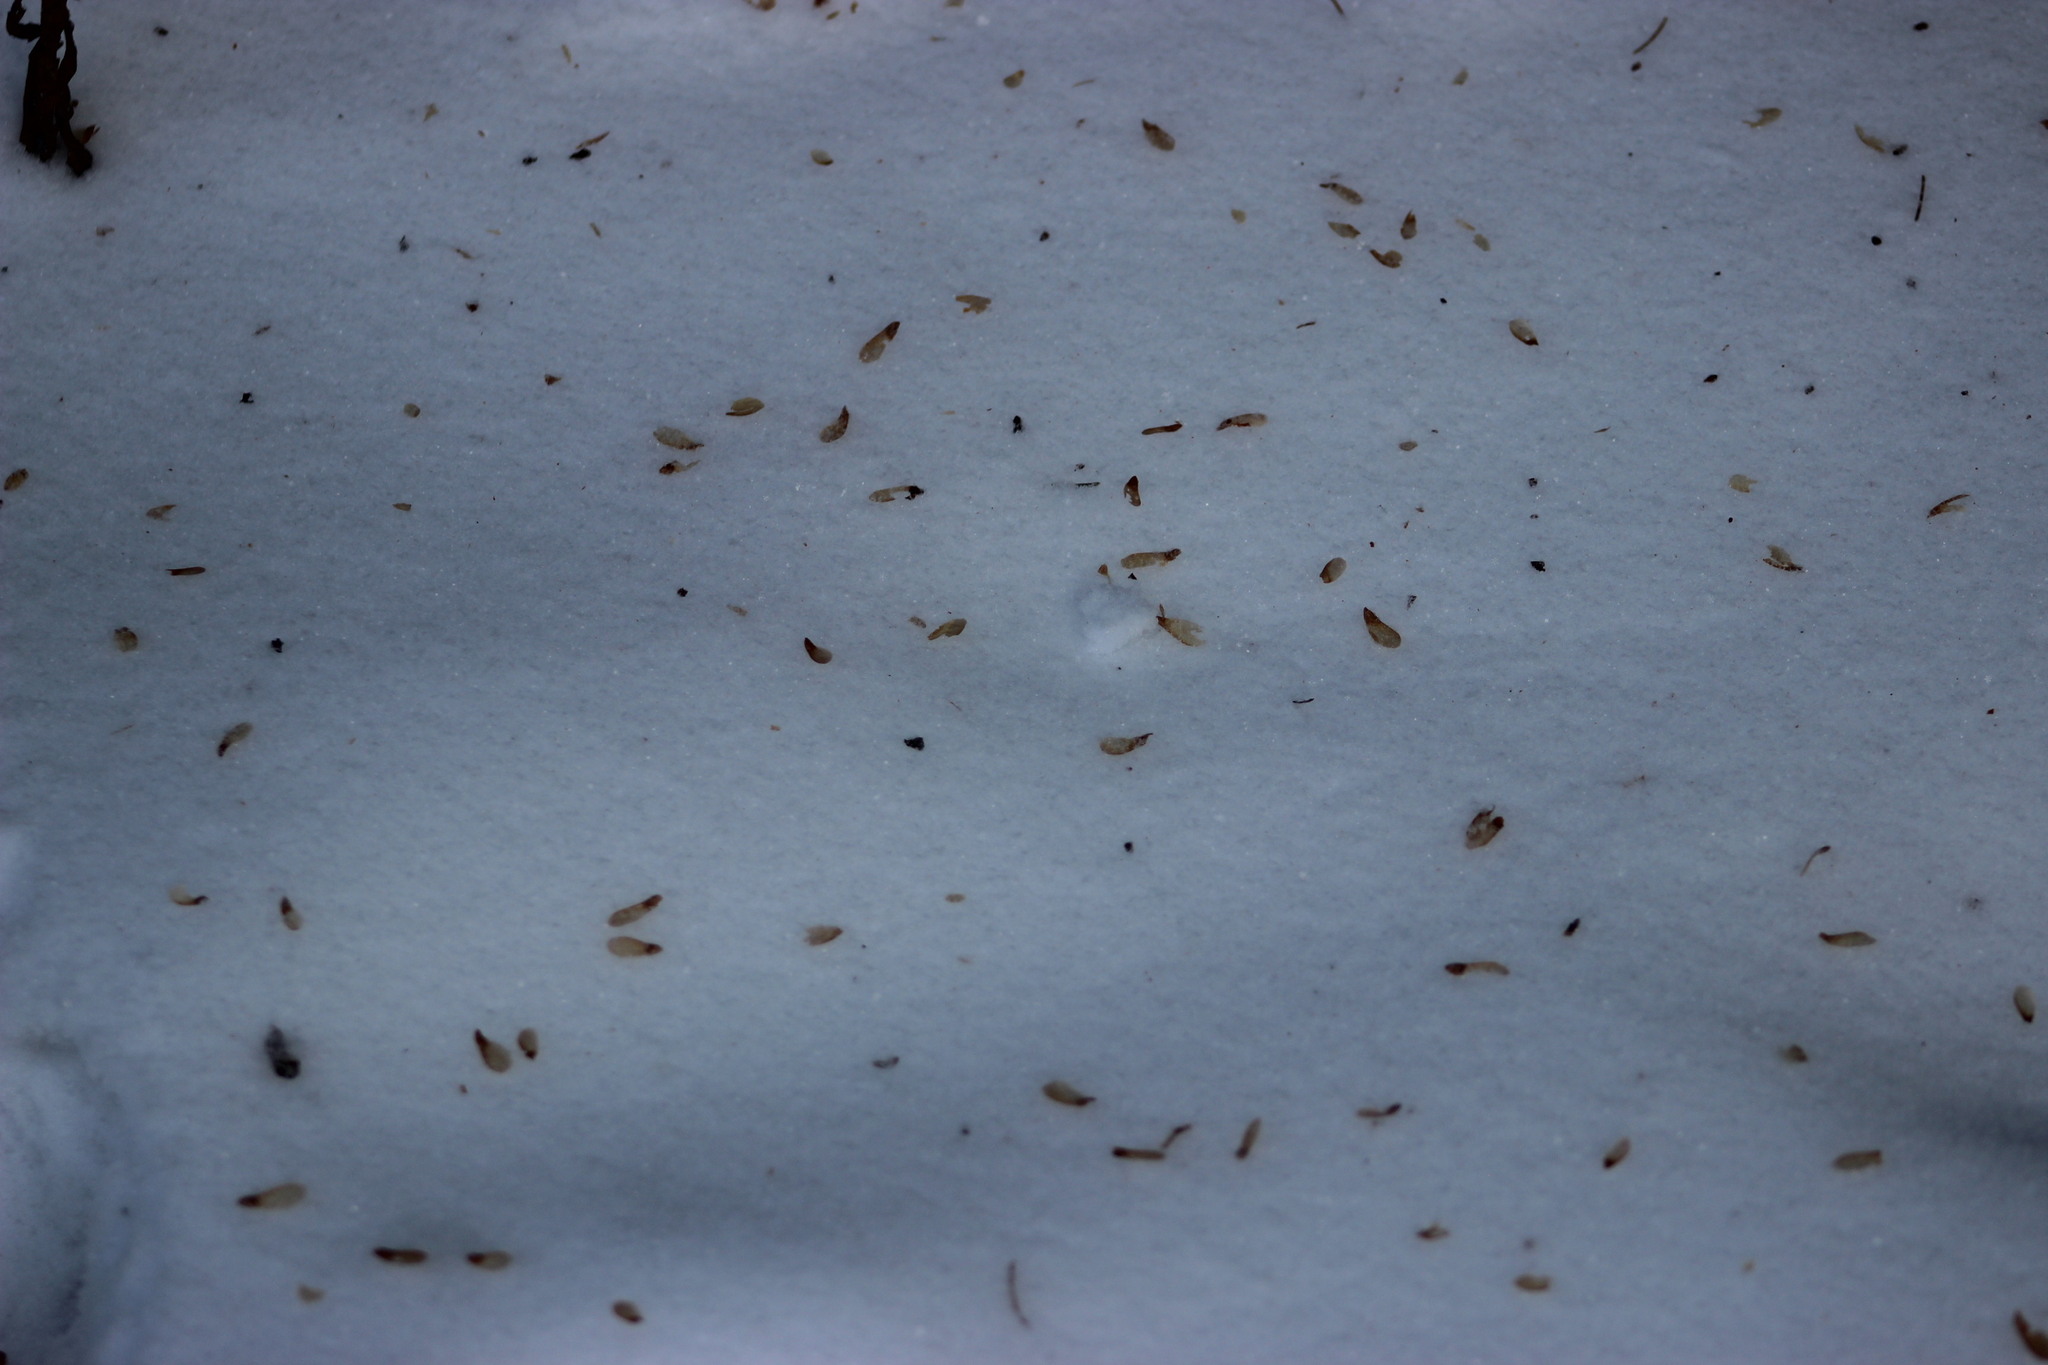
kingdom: Plantae
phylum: Tracheophyta
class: Pinopsida
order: Pinales
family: Pinaceae
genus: Picea
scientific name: Picea obovata
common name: Siberian spruce
